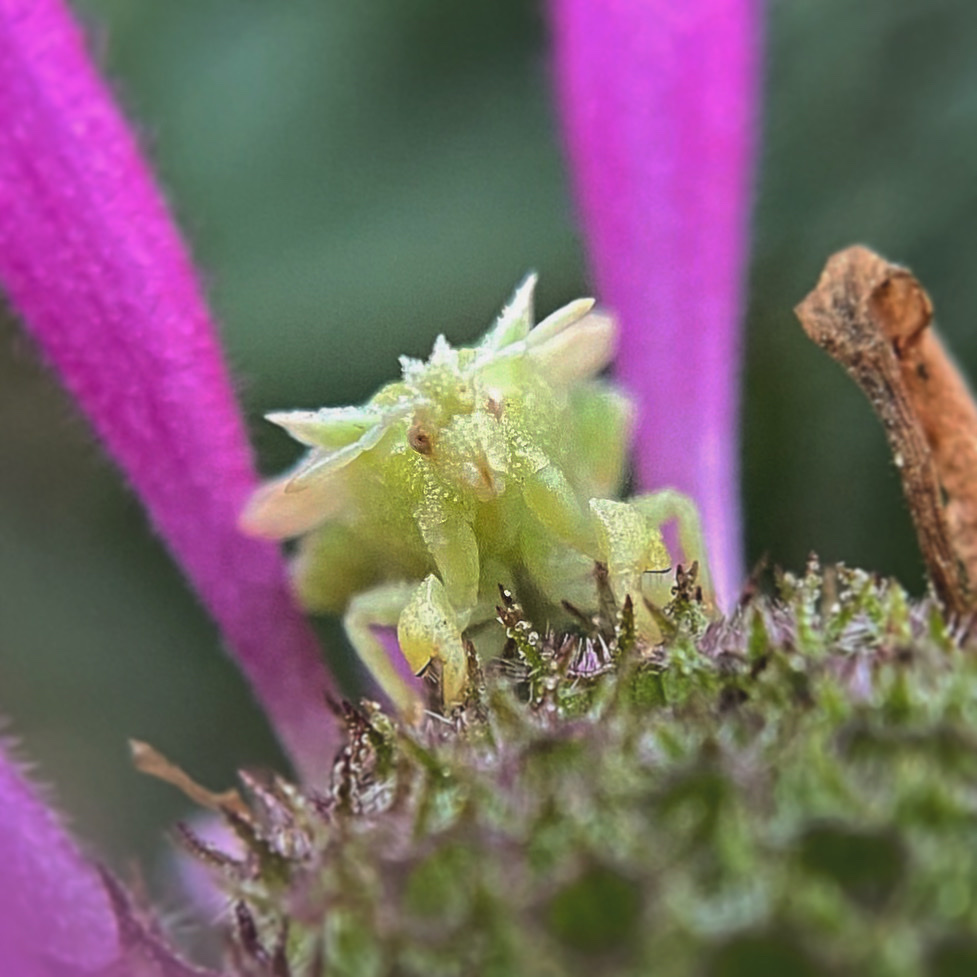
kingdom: Animalia
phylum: Arthropoda
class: Insecta
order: Hemiptera
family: Reduviidae
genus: Phymata
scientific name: Phymata americana
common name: Jagged ambush bug
